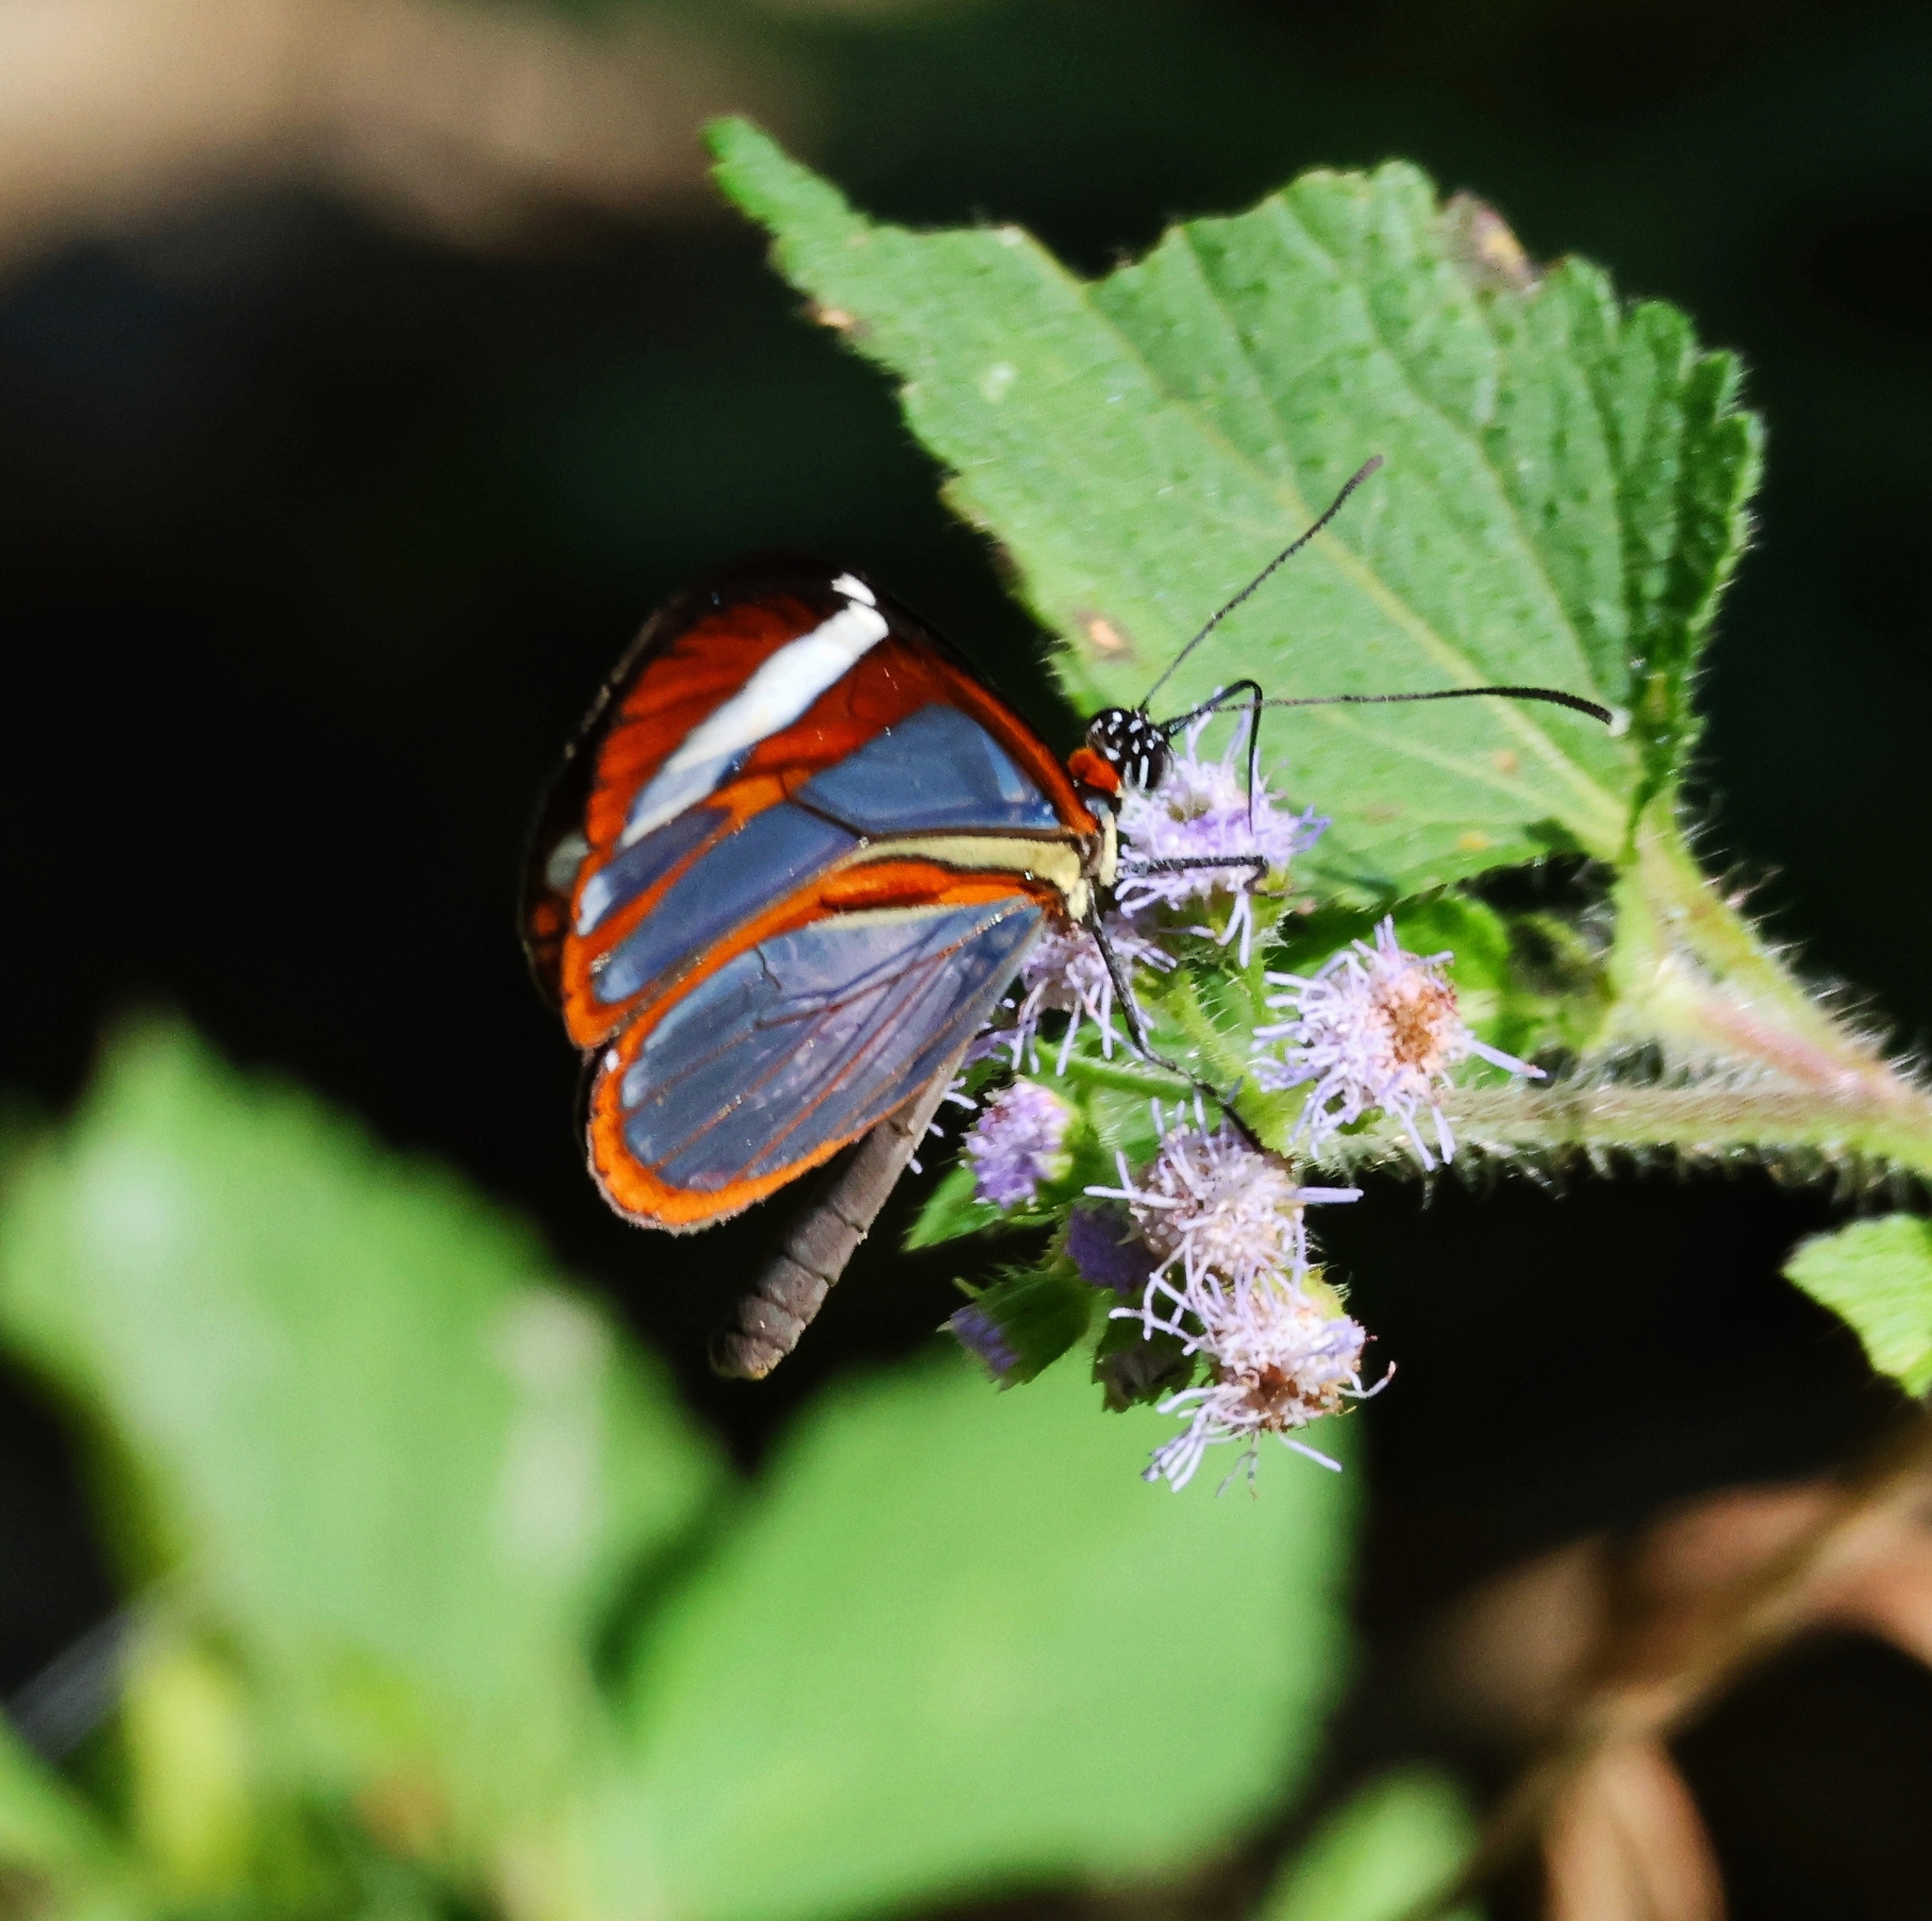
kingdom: Animalia
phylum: Arthropoda
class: Insecta
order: Lepidoptera
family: Nymphalidae
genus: Ithomia
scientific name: Ithomia patilla
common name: Patilla clearwing
